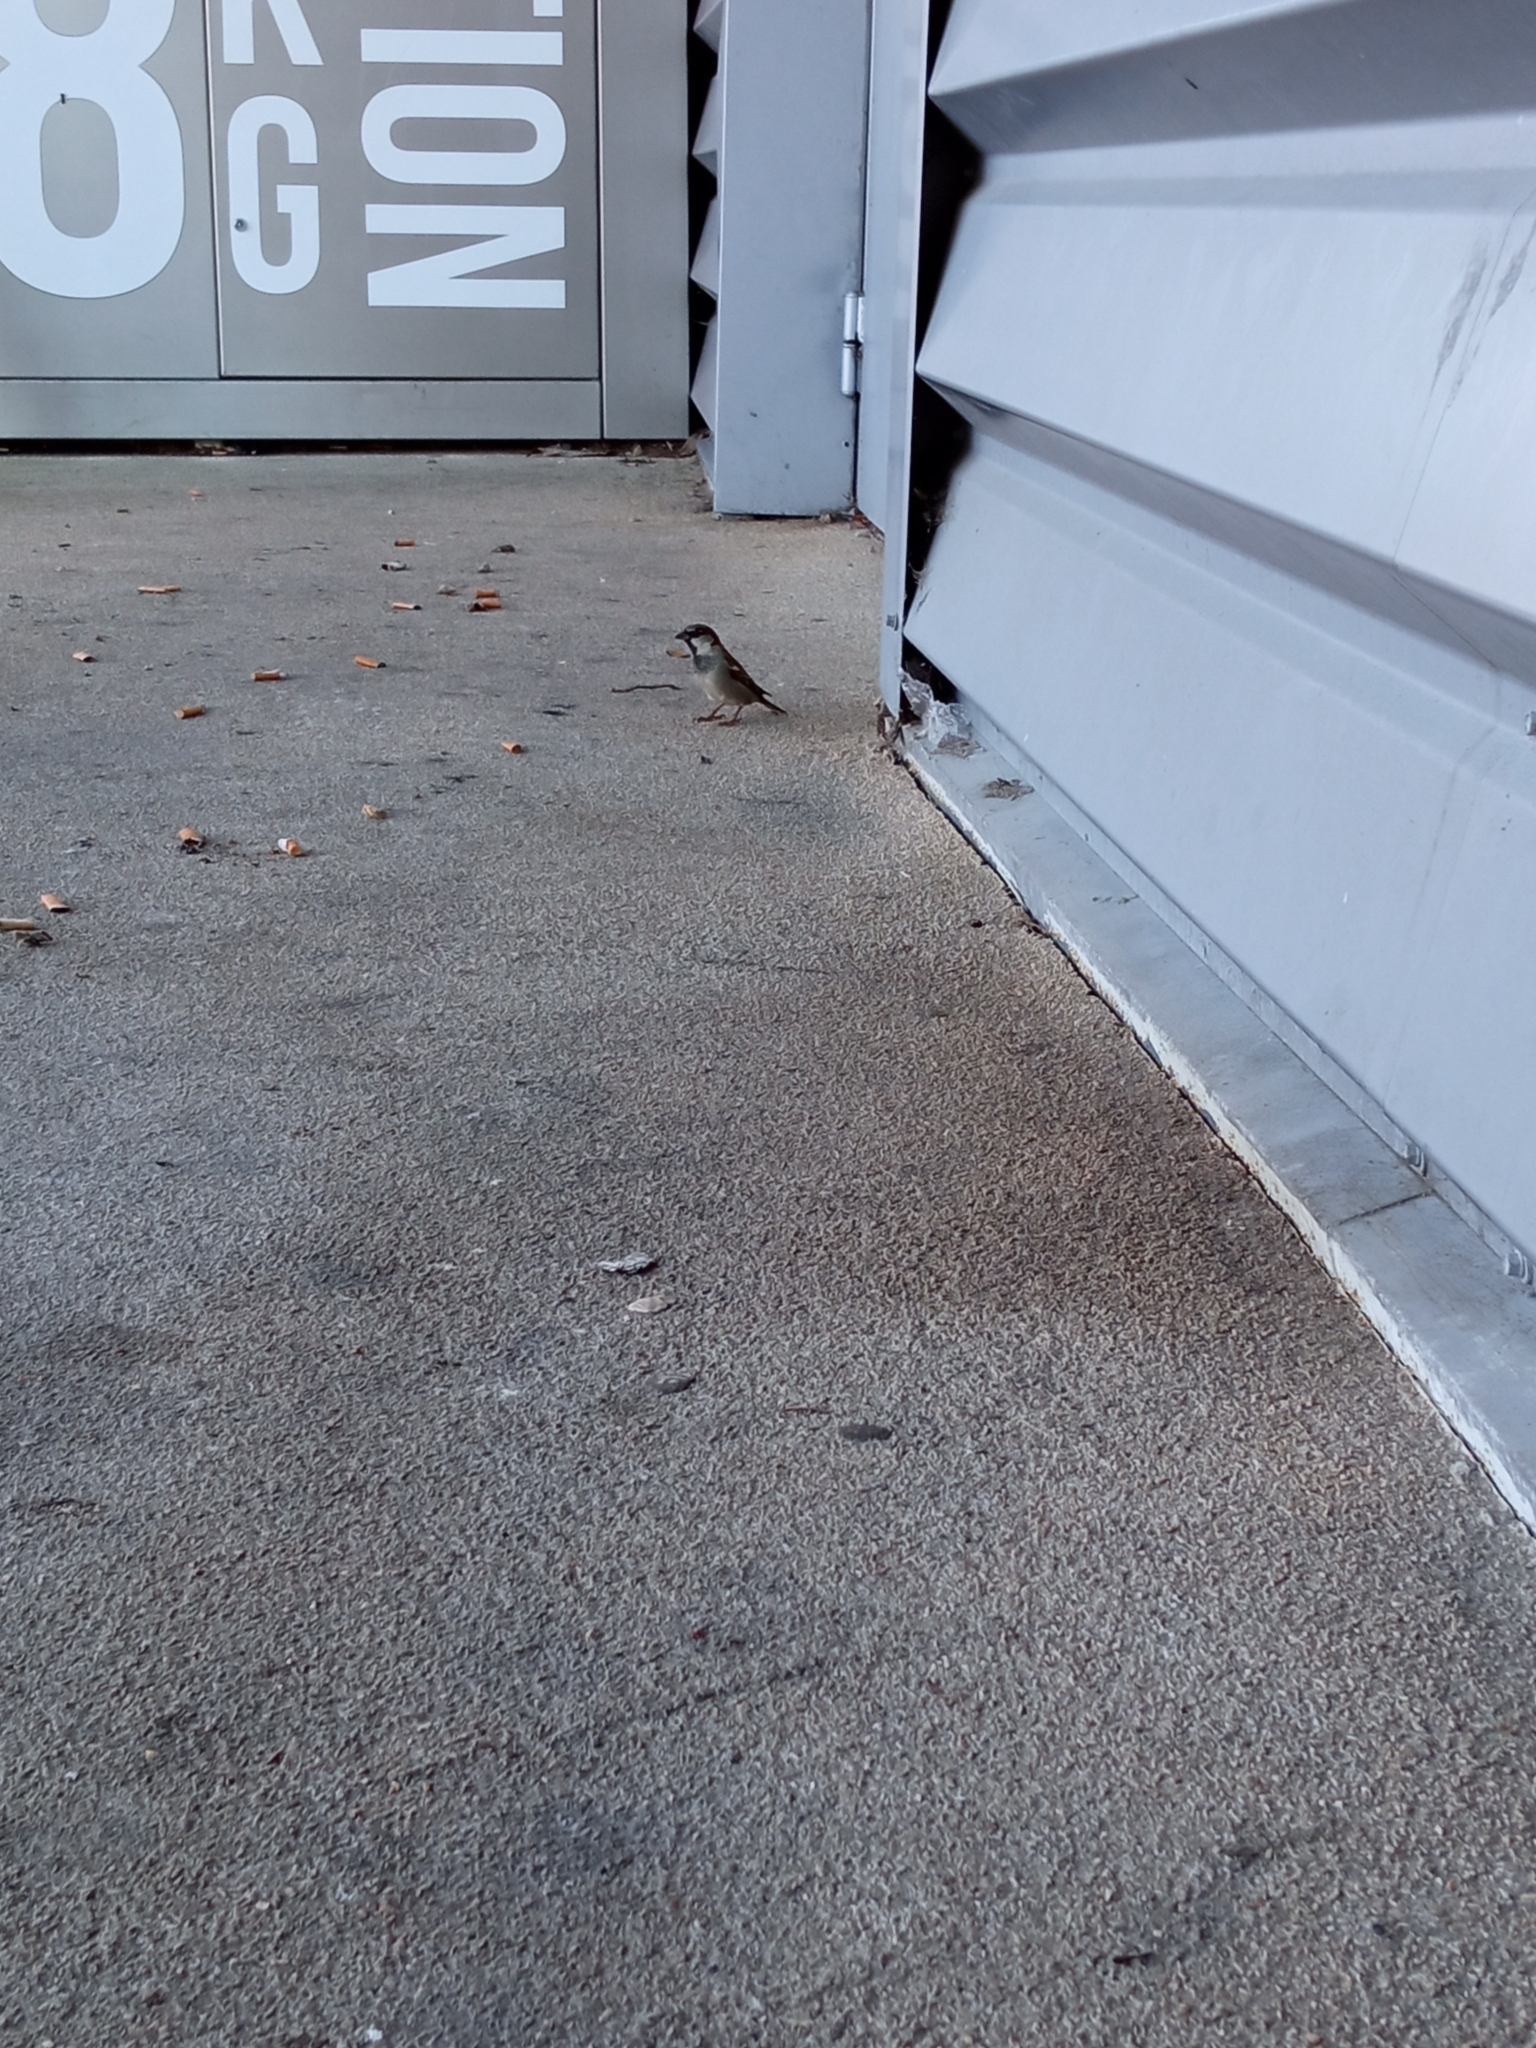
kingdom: Animalia
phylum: Chordata
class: Aves
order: Passeriformes
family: Passeridae
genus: Passer
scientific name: Passer domesticus
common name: House sparrow
